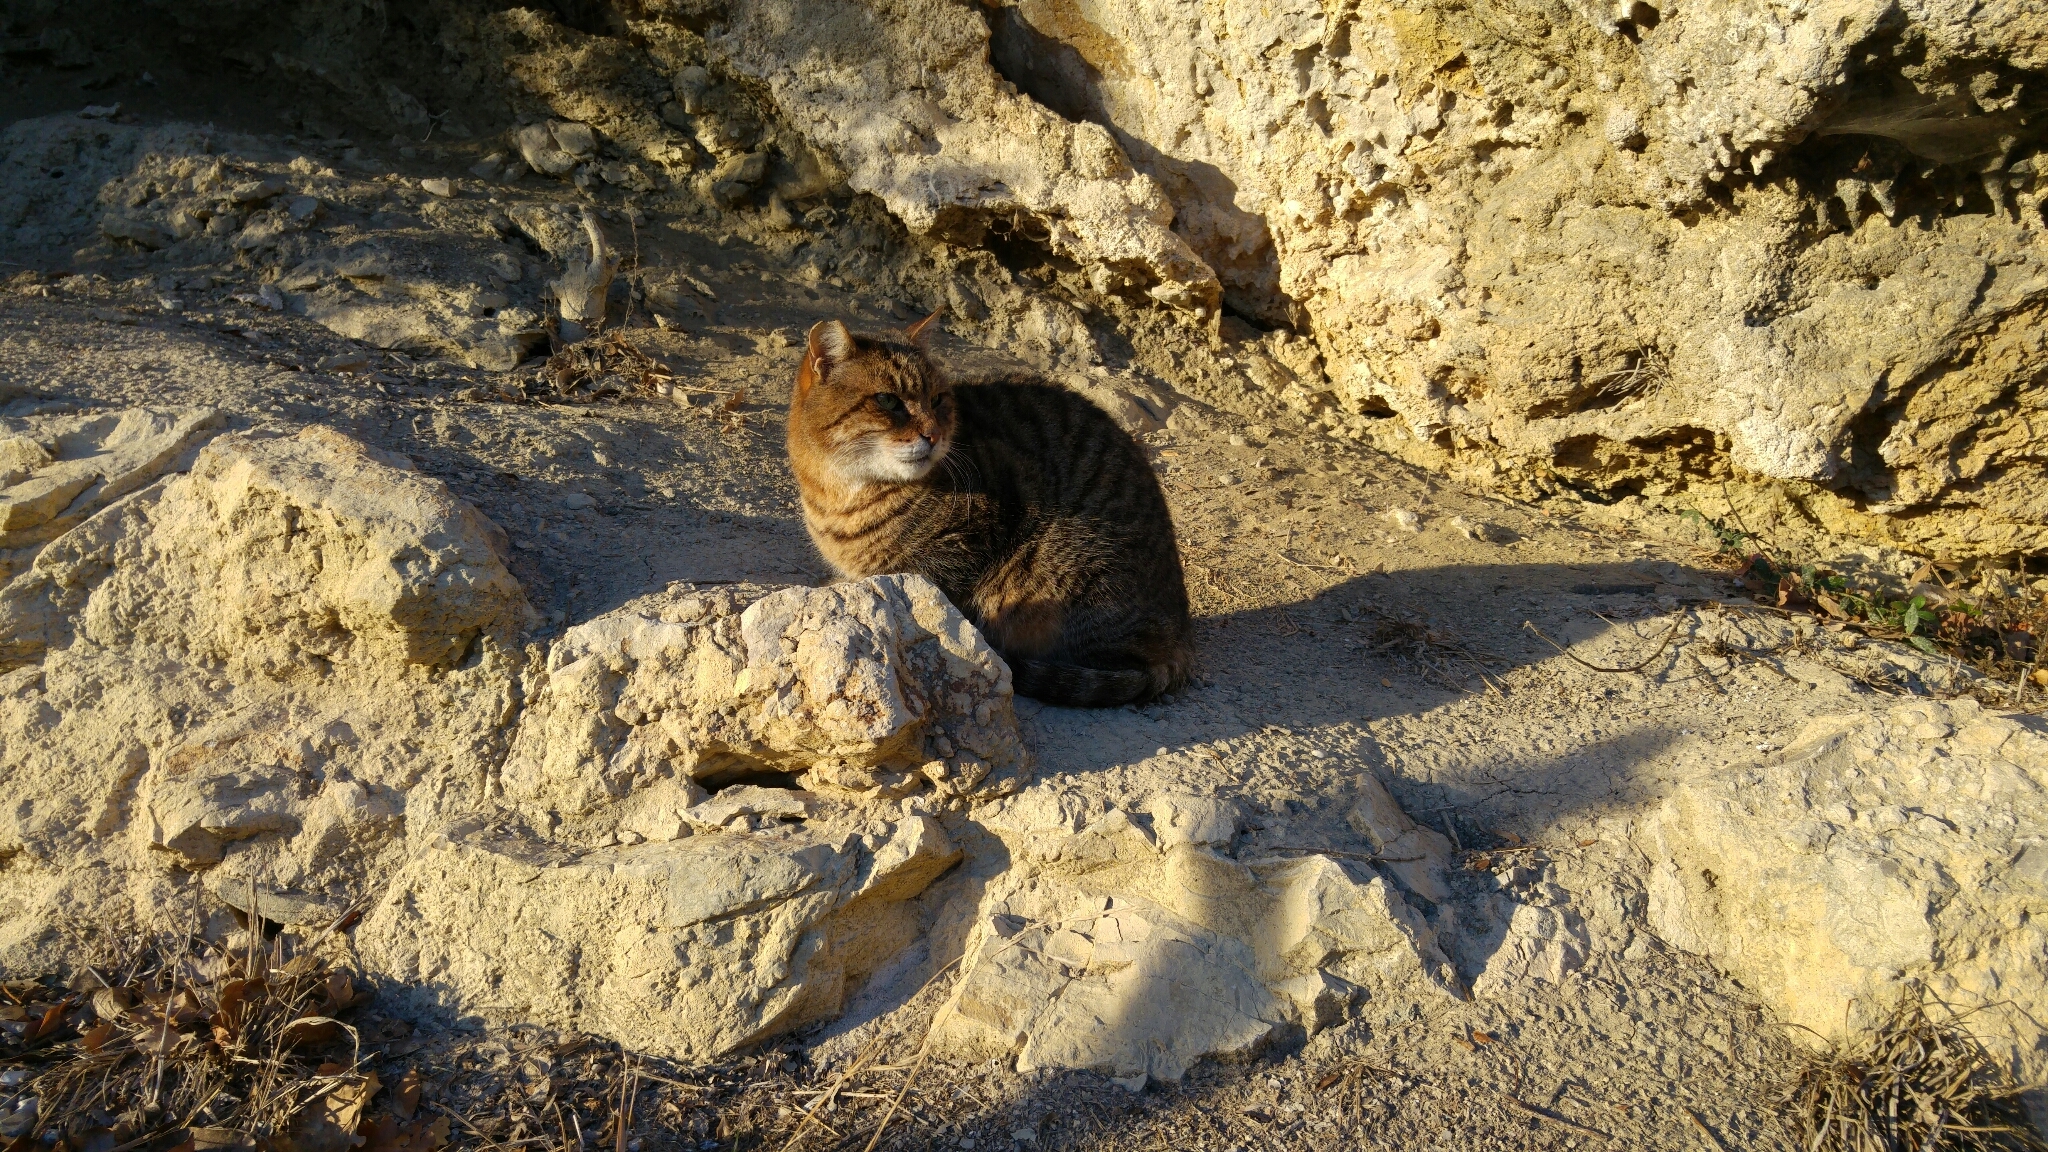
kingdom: Animalia
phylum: Chordata
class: Mammalia
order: Carnivora
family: Felidae
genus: Felis
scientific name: Felis catus
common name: Domestic cat
